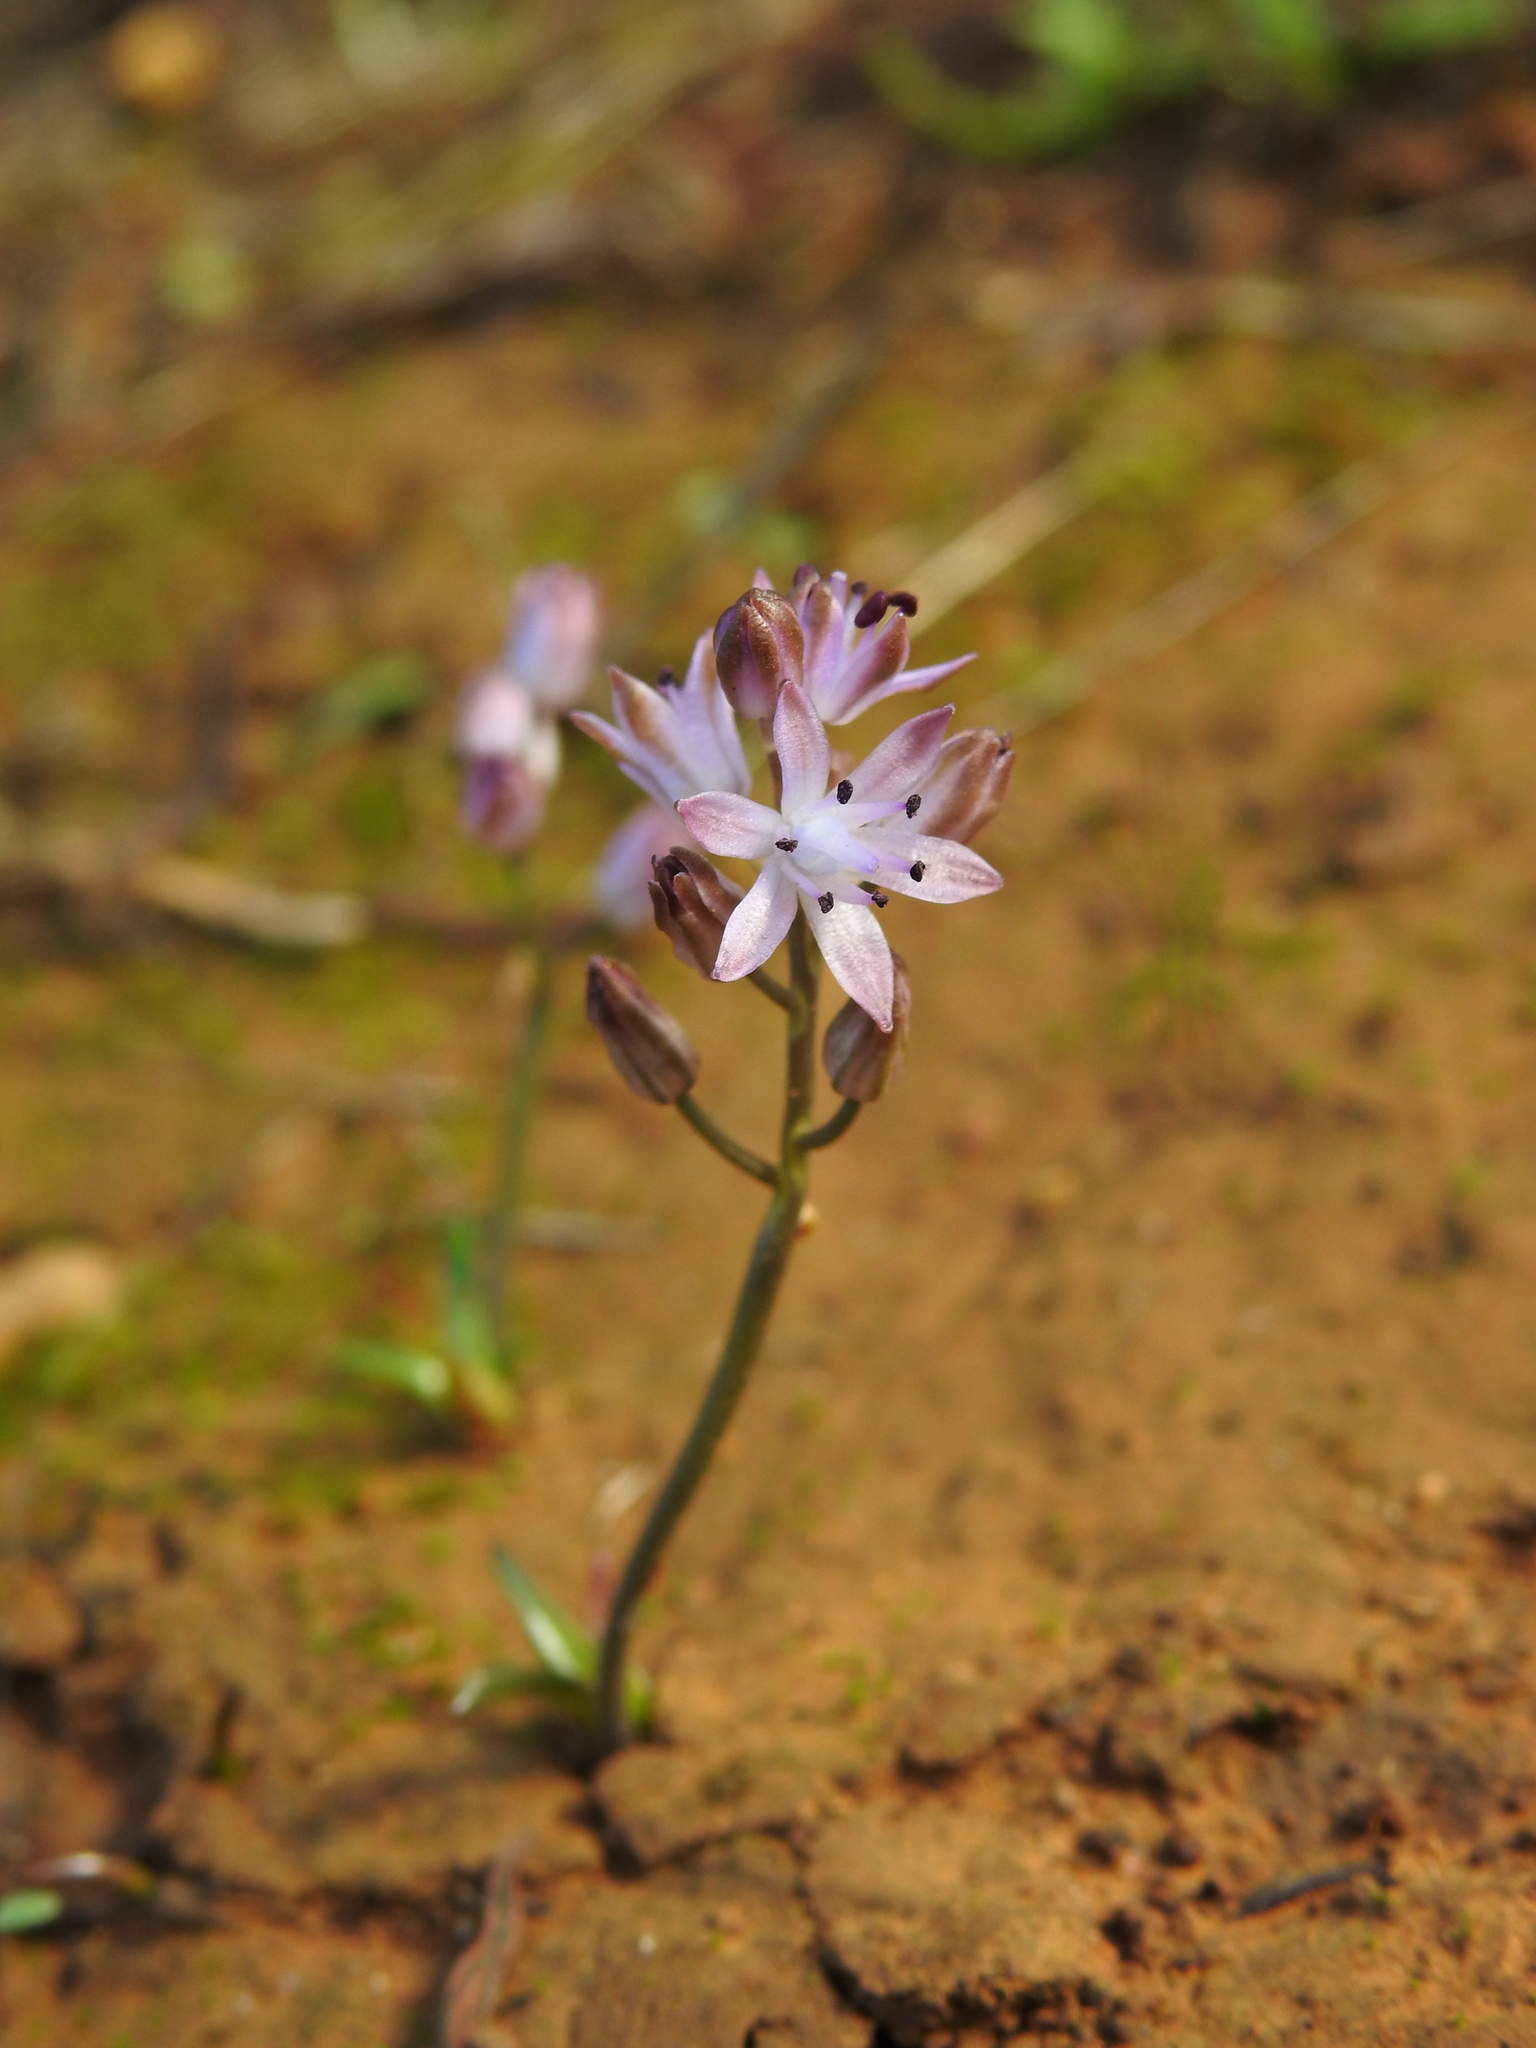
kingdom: Plantae
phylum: Tracheophyta
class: Liliopsida
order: Asparagales
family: Asparagaceae
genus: Prospero
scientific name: Prospero autumnale
